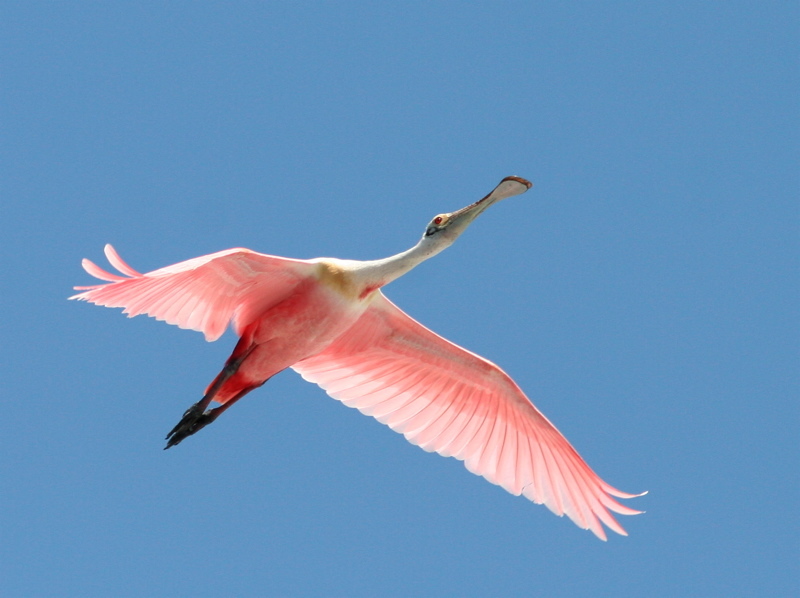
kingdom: Animalia
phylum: Chordata
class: Aves
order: Pelecaniformes
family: Threskiornithidae
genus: Platalea
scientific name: Platalea ajaja
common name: Roseate spoonbill
